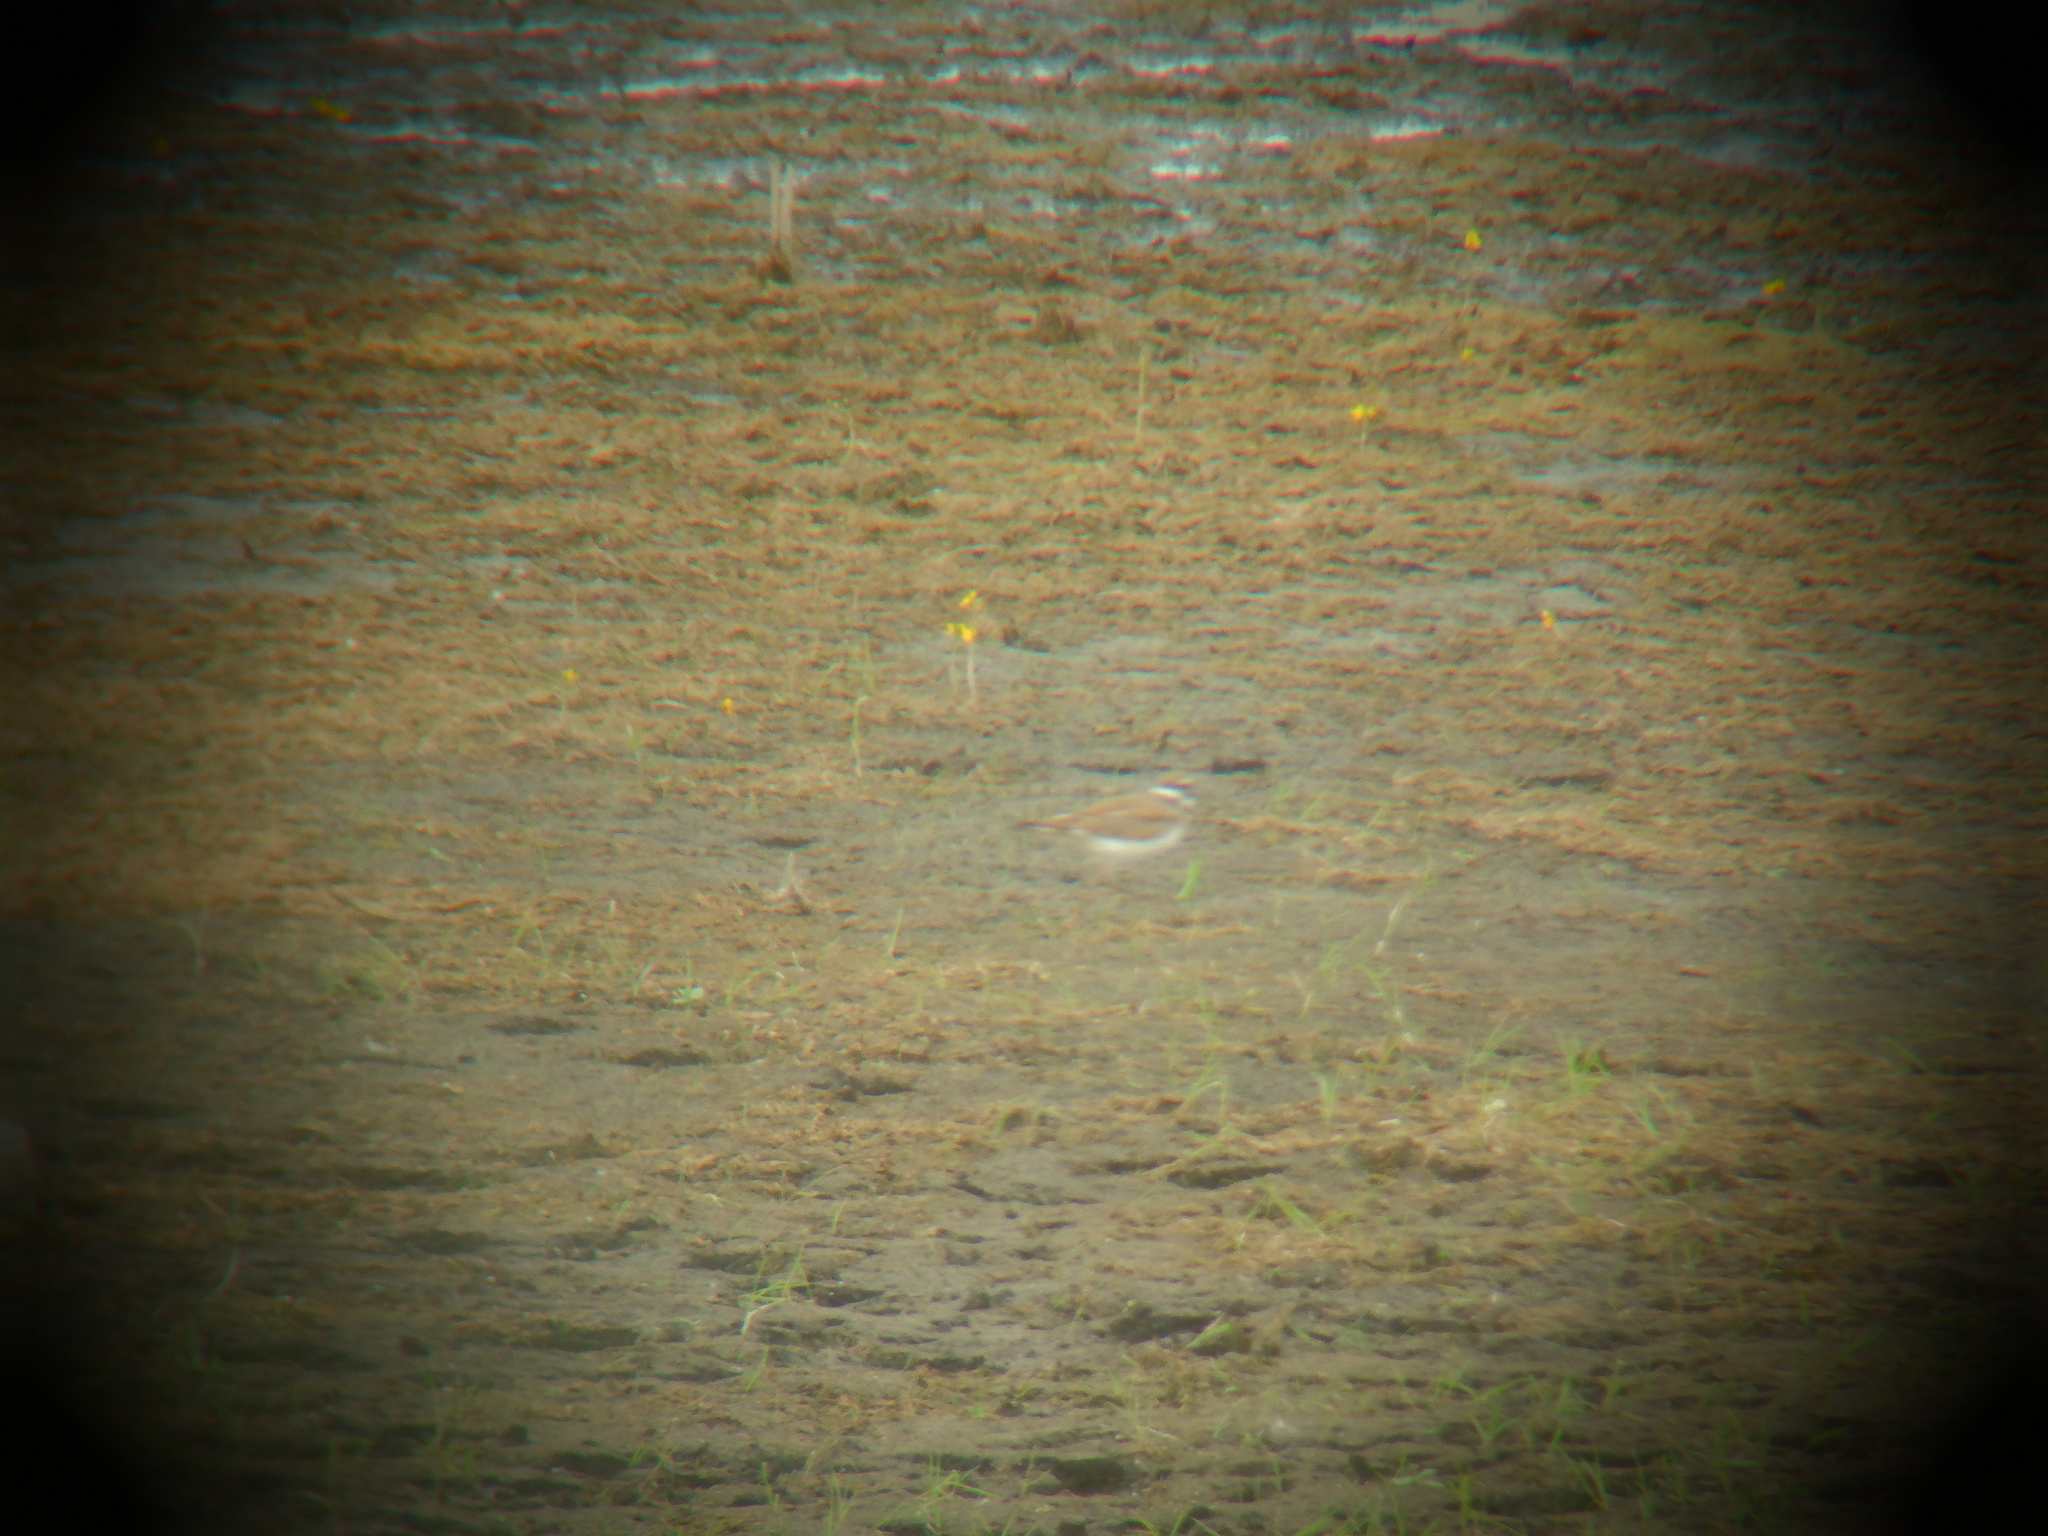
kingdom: Animalia
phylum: Chordata
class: Aves
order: Charadriiformes
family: Charadriidae
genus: Charadrius
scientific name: Charadrius vociferus
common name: Killdeer
